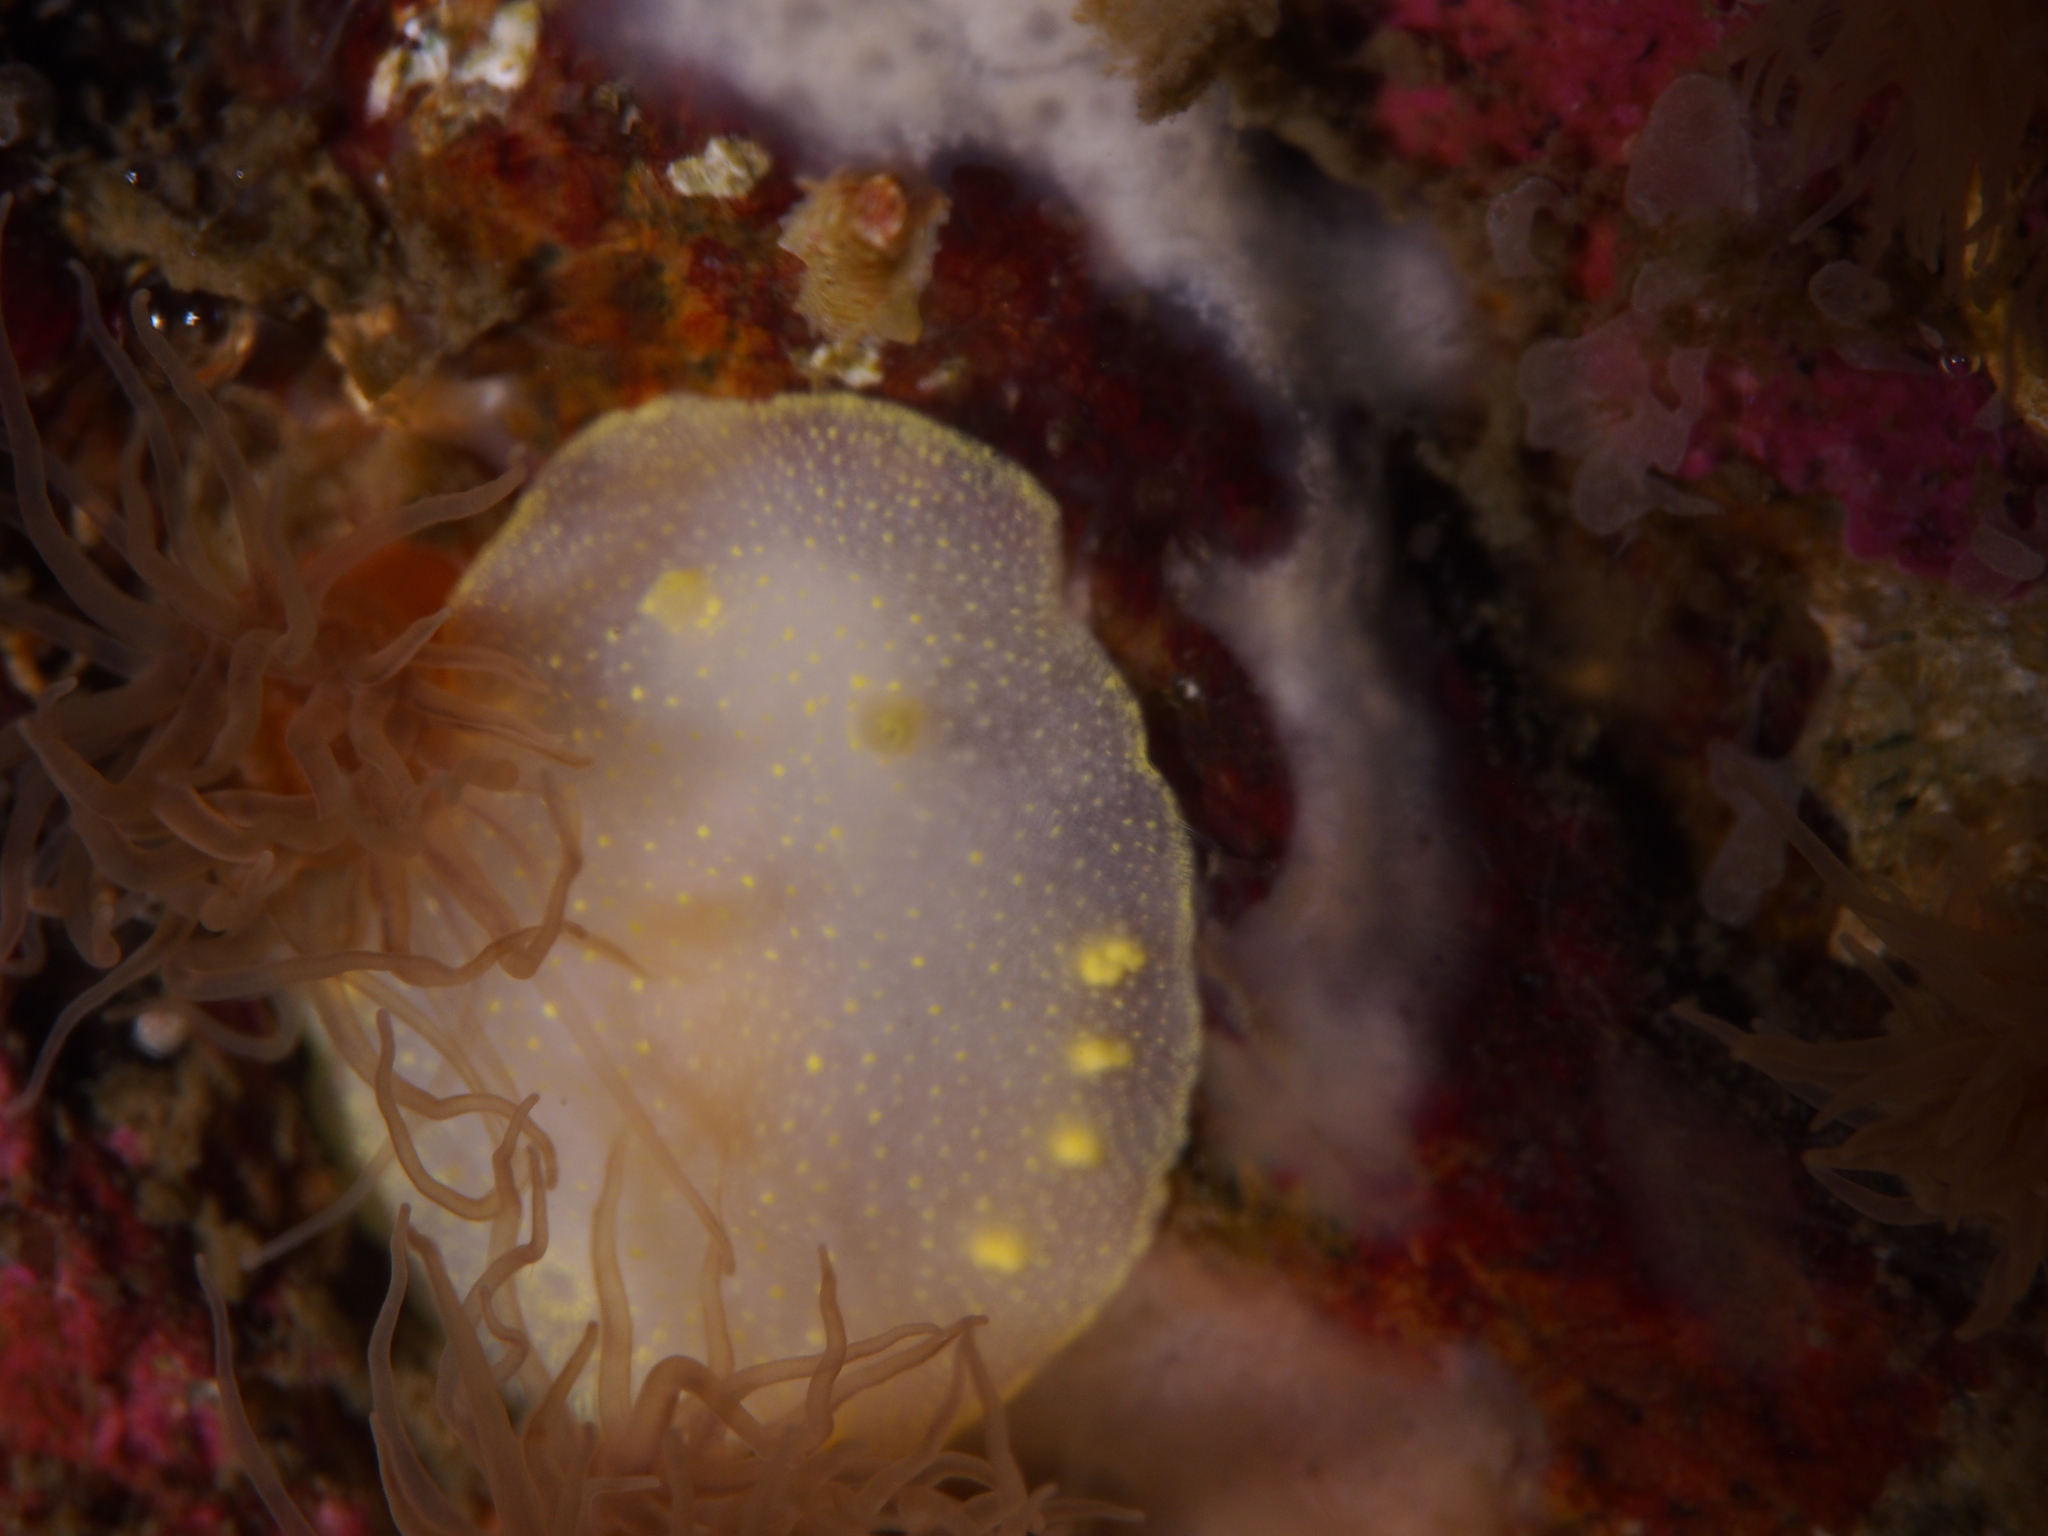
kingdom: Animalia
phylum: Mollusca
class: Gastropoda
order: Nudibranchia
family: Cadlinidae
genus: Cadlina
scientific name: Cadlina laevis
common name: White atlantic cadlina
